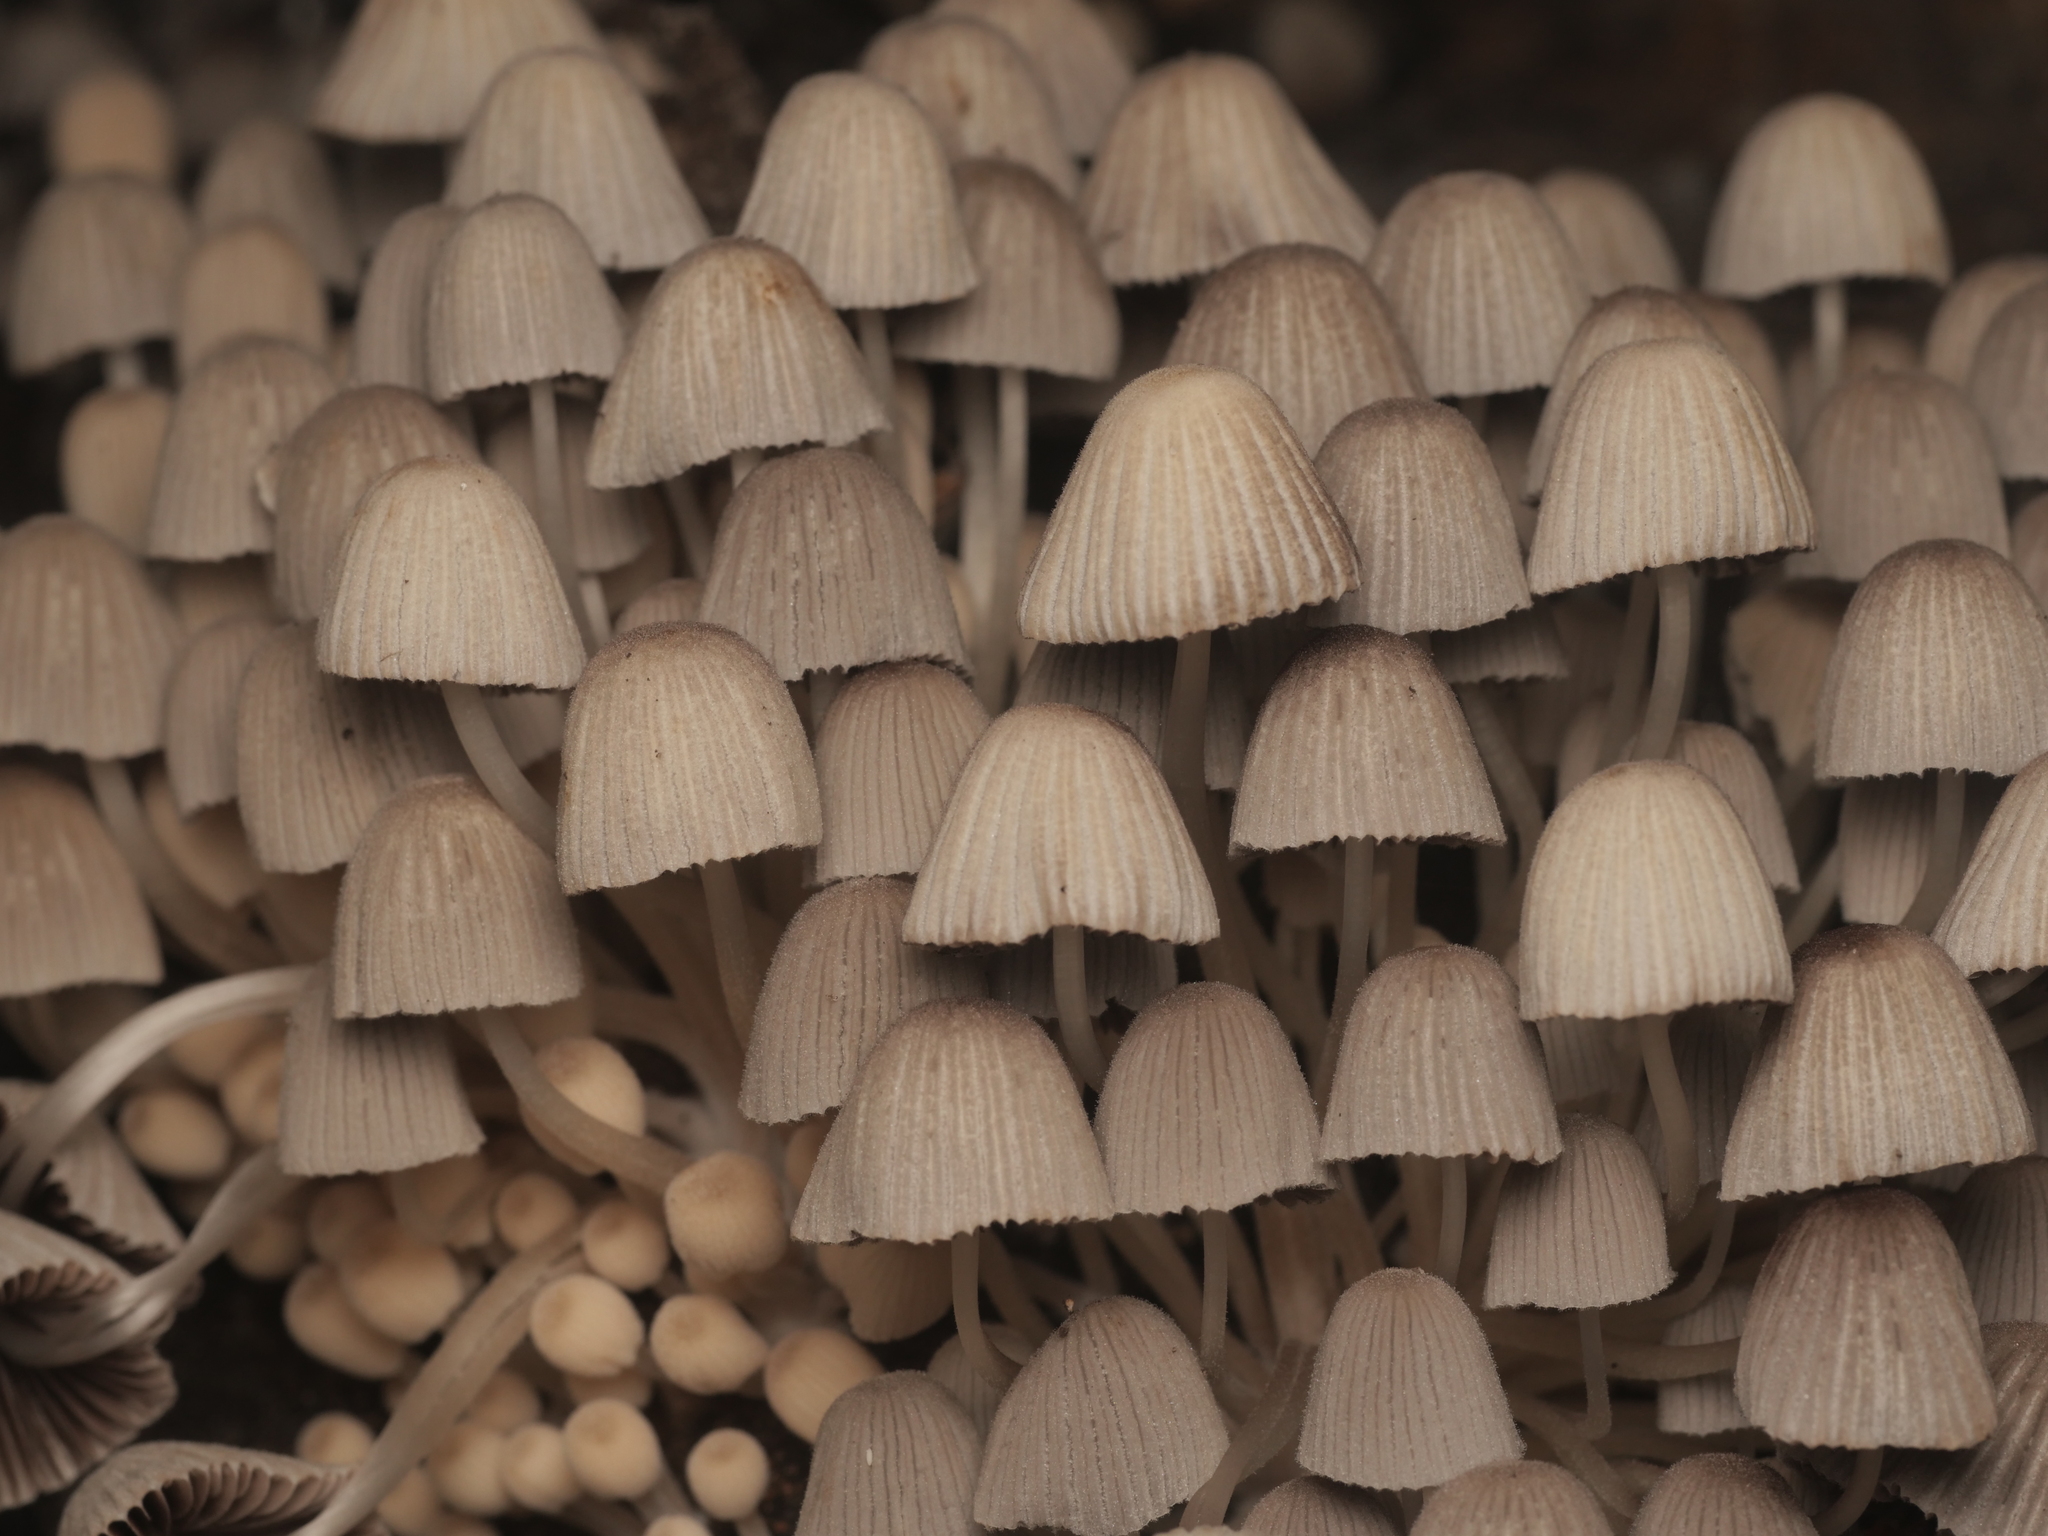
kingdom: Fungi
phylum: Basidiomycota
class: Agaricomycetes
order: Agaricales
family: Psathyrellaceae
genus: Coprinellus
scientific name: Coprinellus disseminatus
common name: Fairies' bonnets
